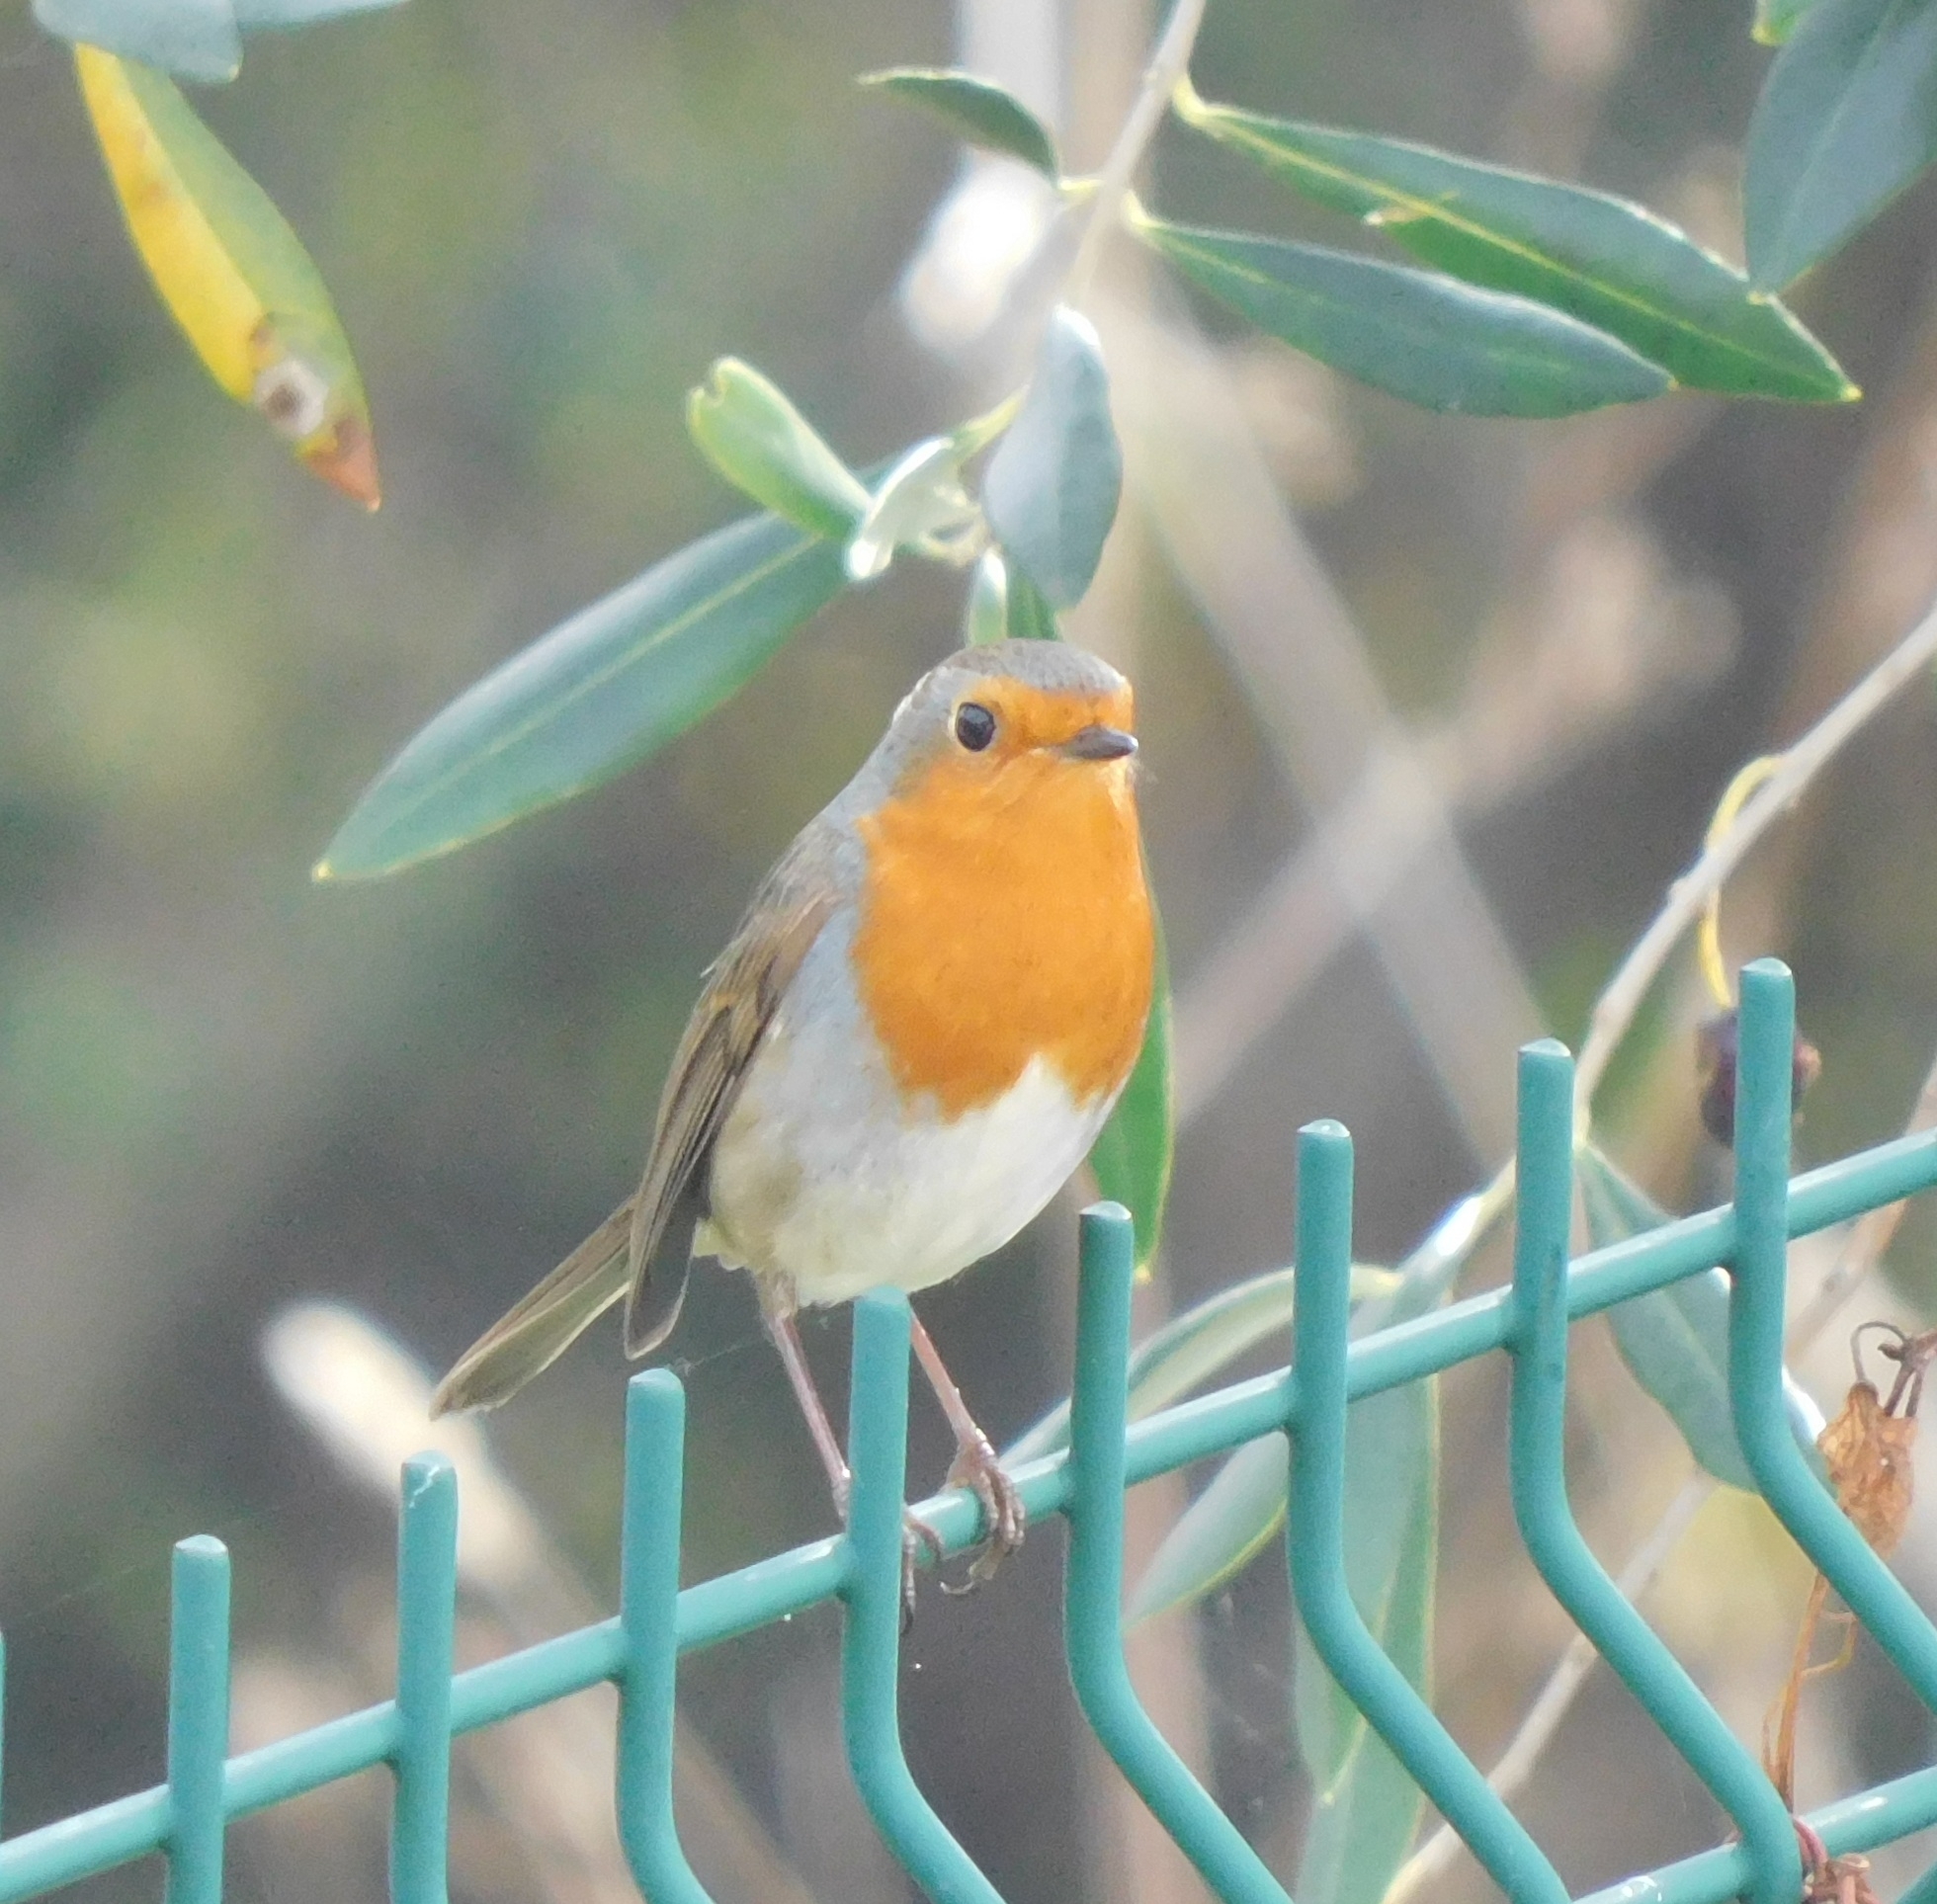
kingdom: Animalia
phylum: Chordata
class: Aves
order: Passeriformes
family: Muscicapidae
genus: Erithacus
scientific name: Erithacus rubecula
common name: European robin
